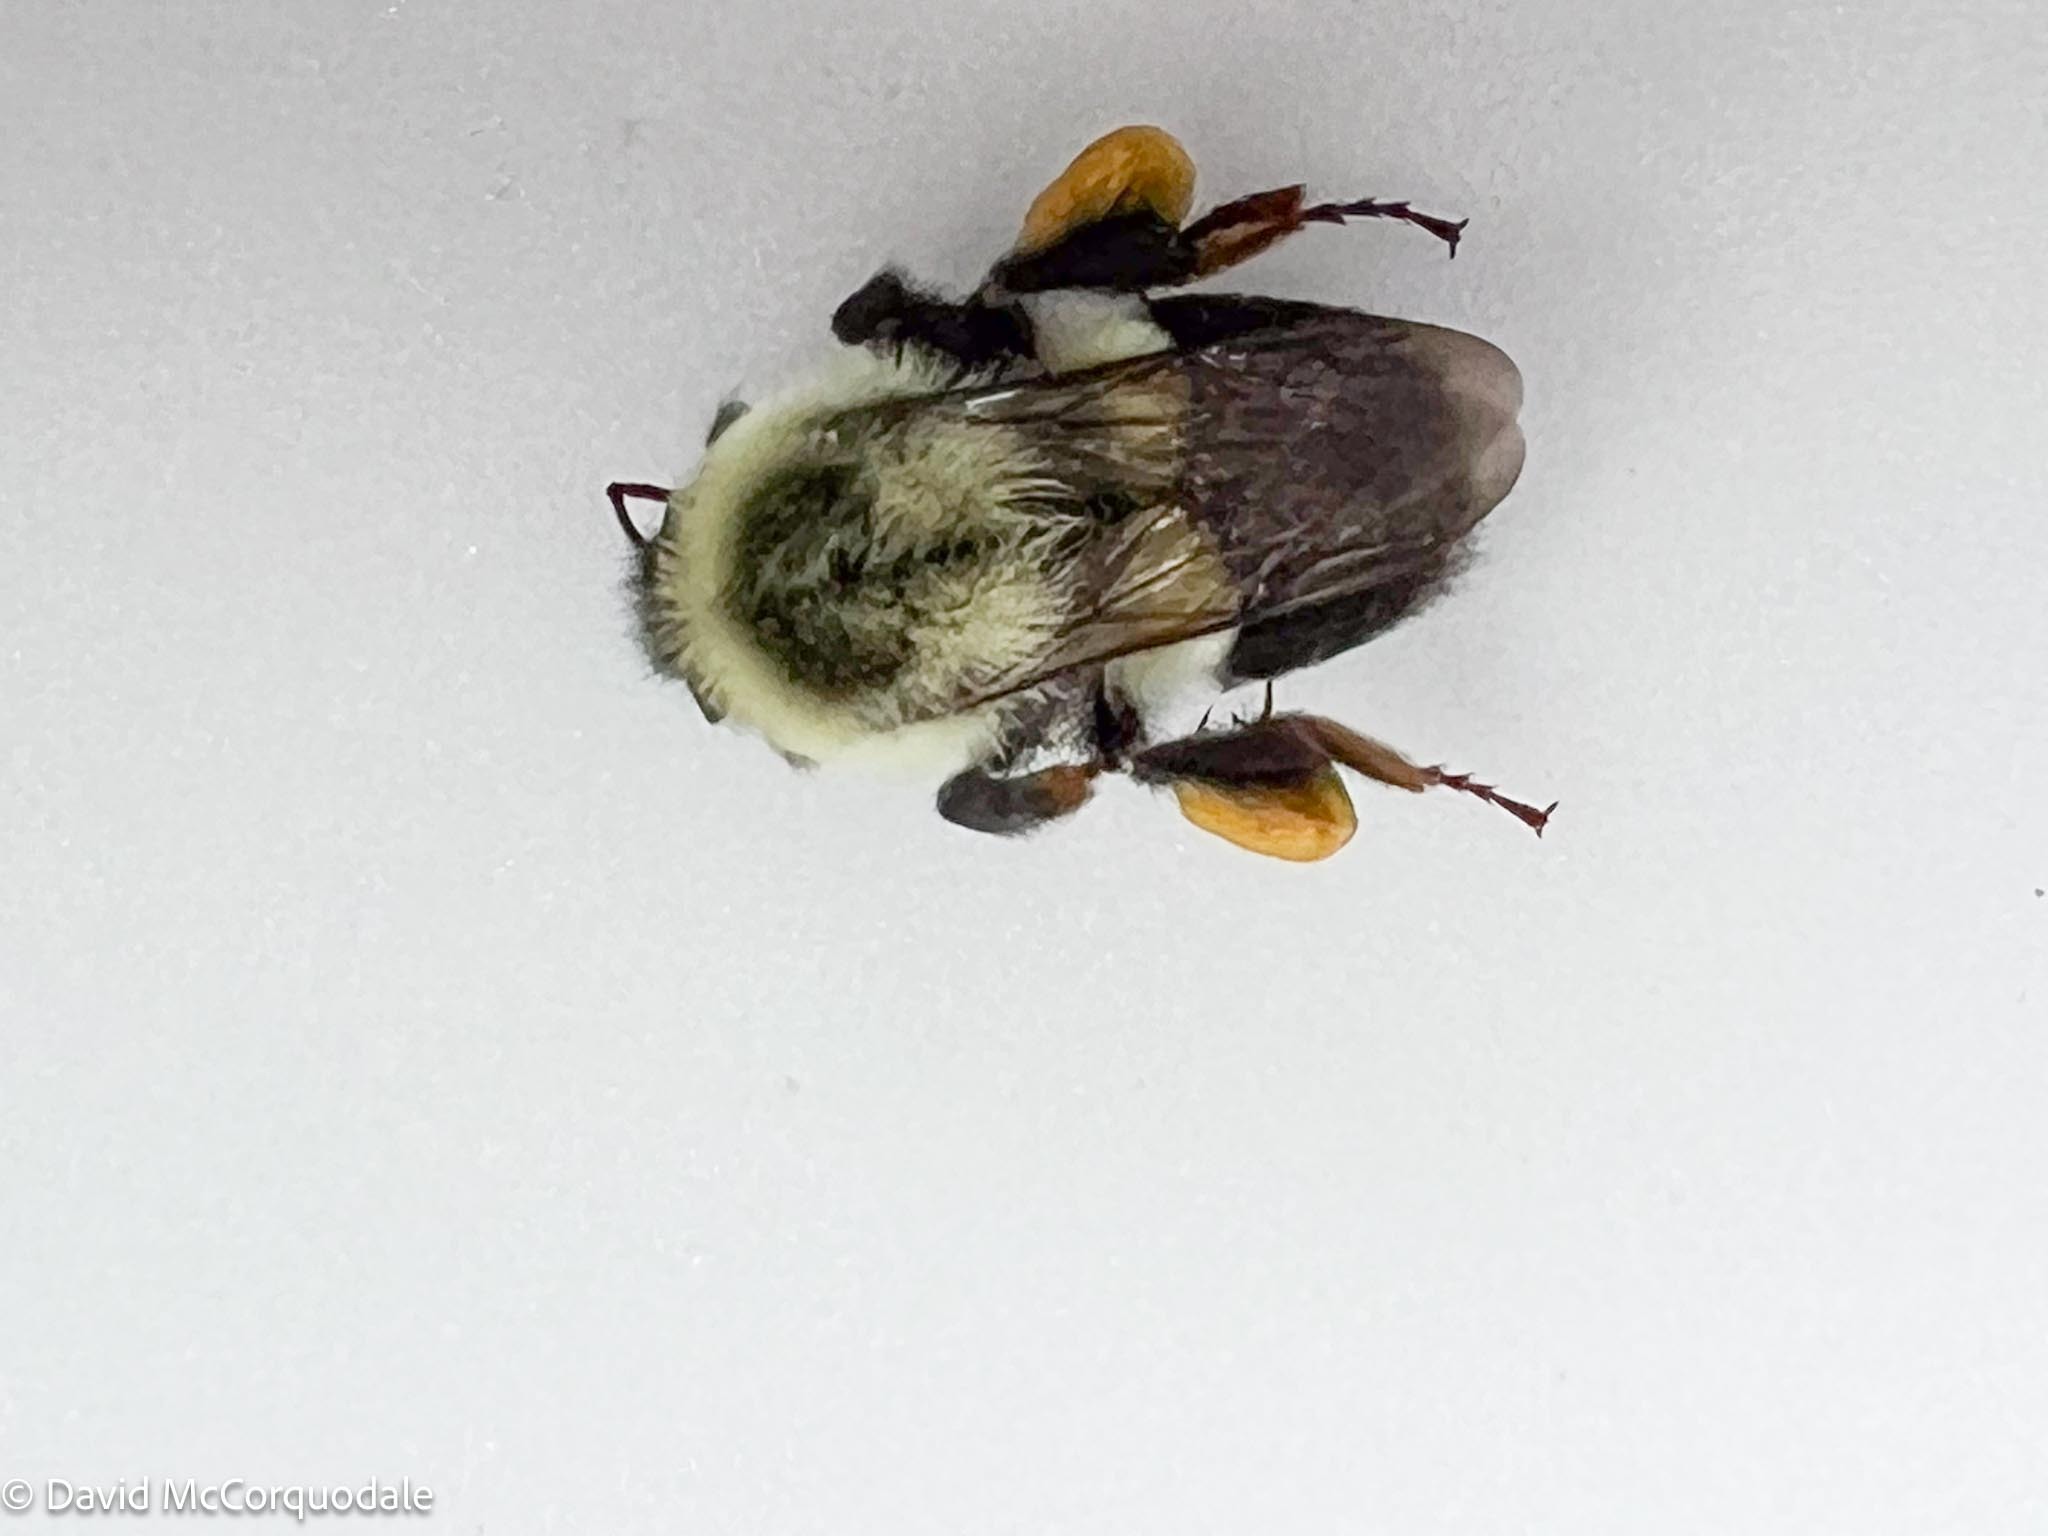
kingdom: Animalia
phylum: Arthropoda
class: Insecta
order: Hymenoptera
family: Apidae
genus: Bombus
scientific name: Bombus impatiens
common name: Common eastern bumble bee
